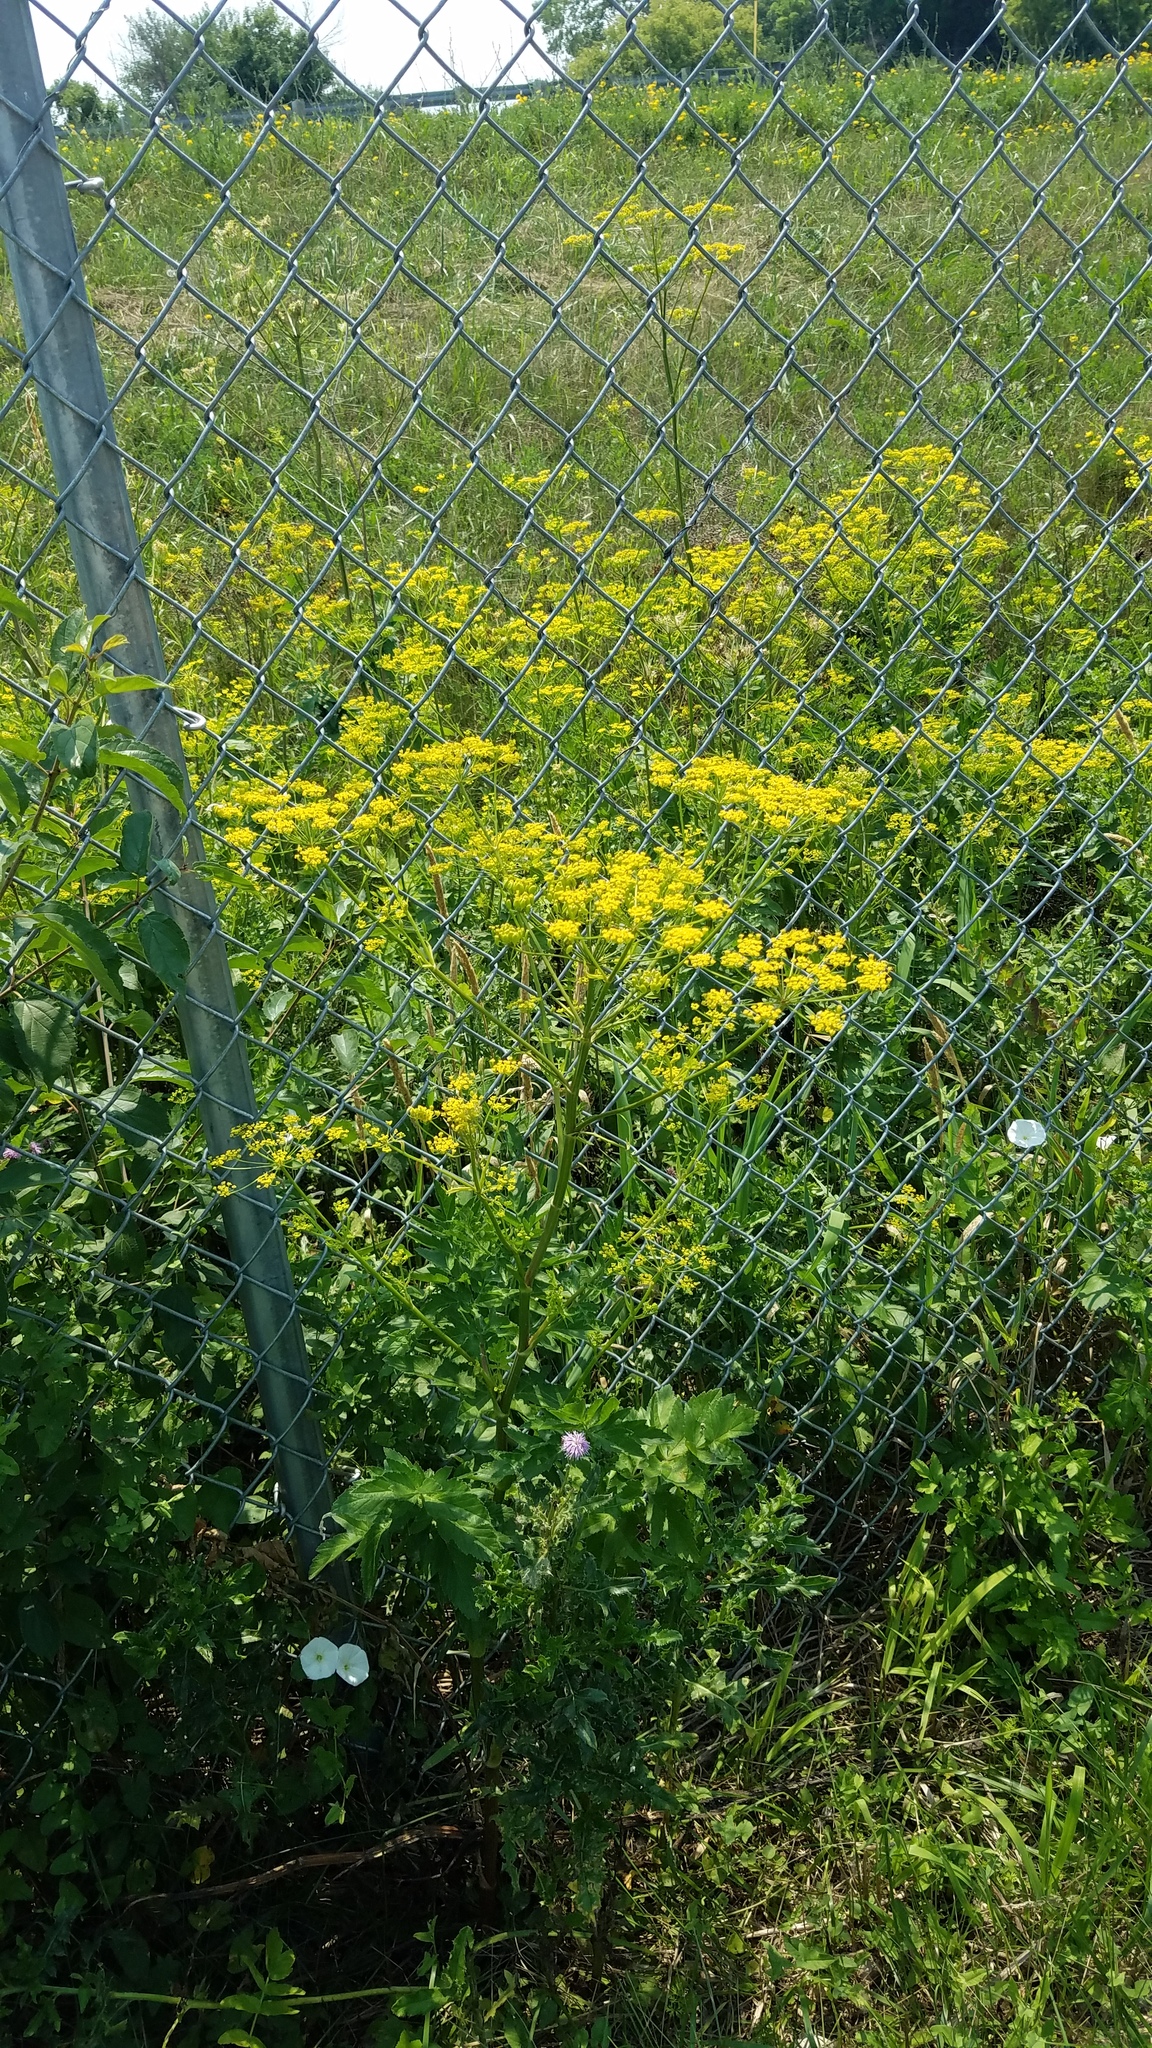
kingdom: Plantae
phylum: Tracheophyta
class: Magnoliopsida
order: Apiales
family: Apiaceae
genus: Pastinaca
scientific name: Pastinaca sativa
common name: Wild parsnip
